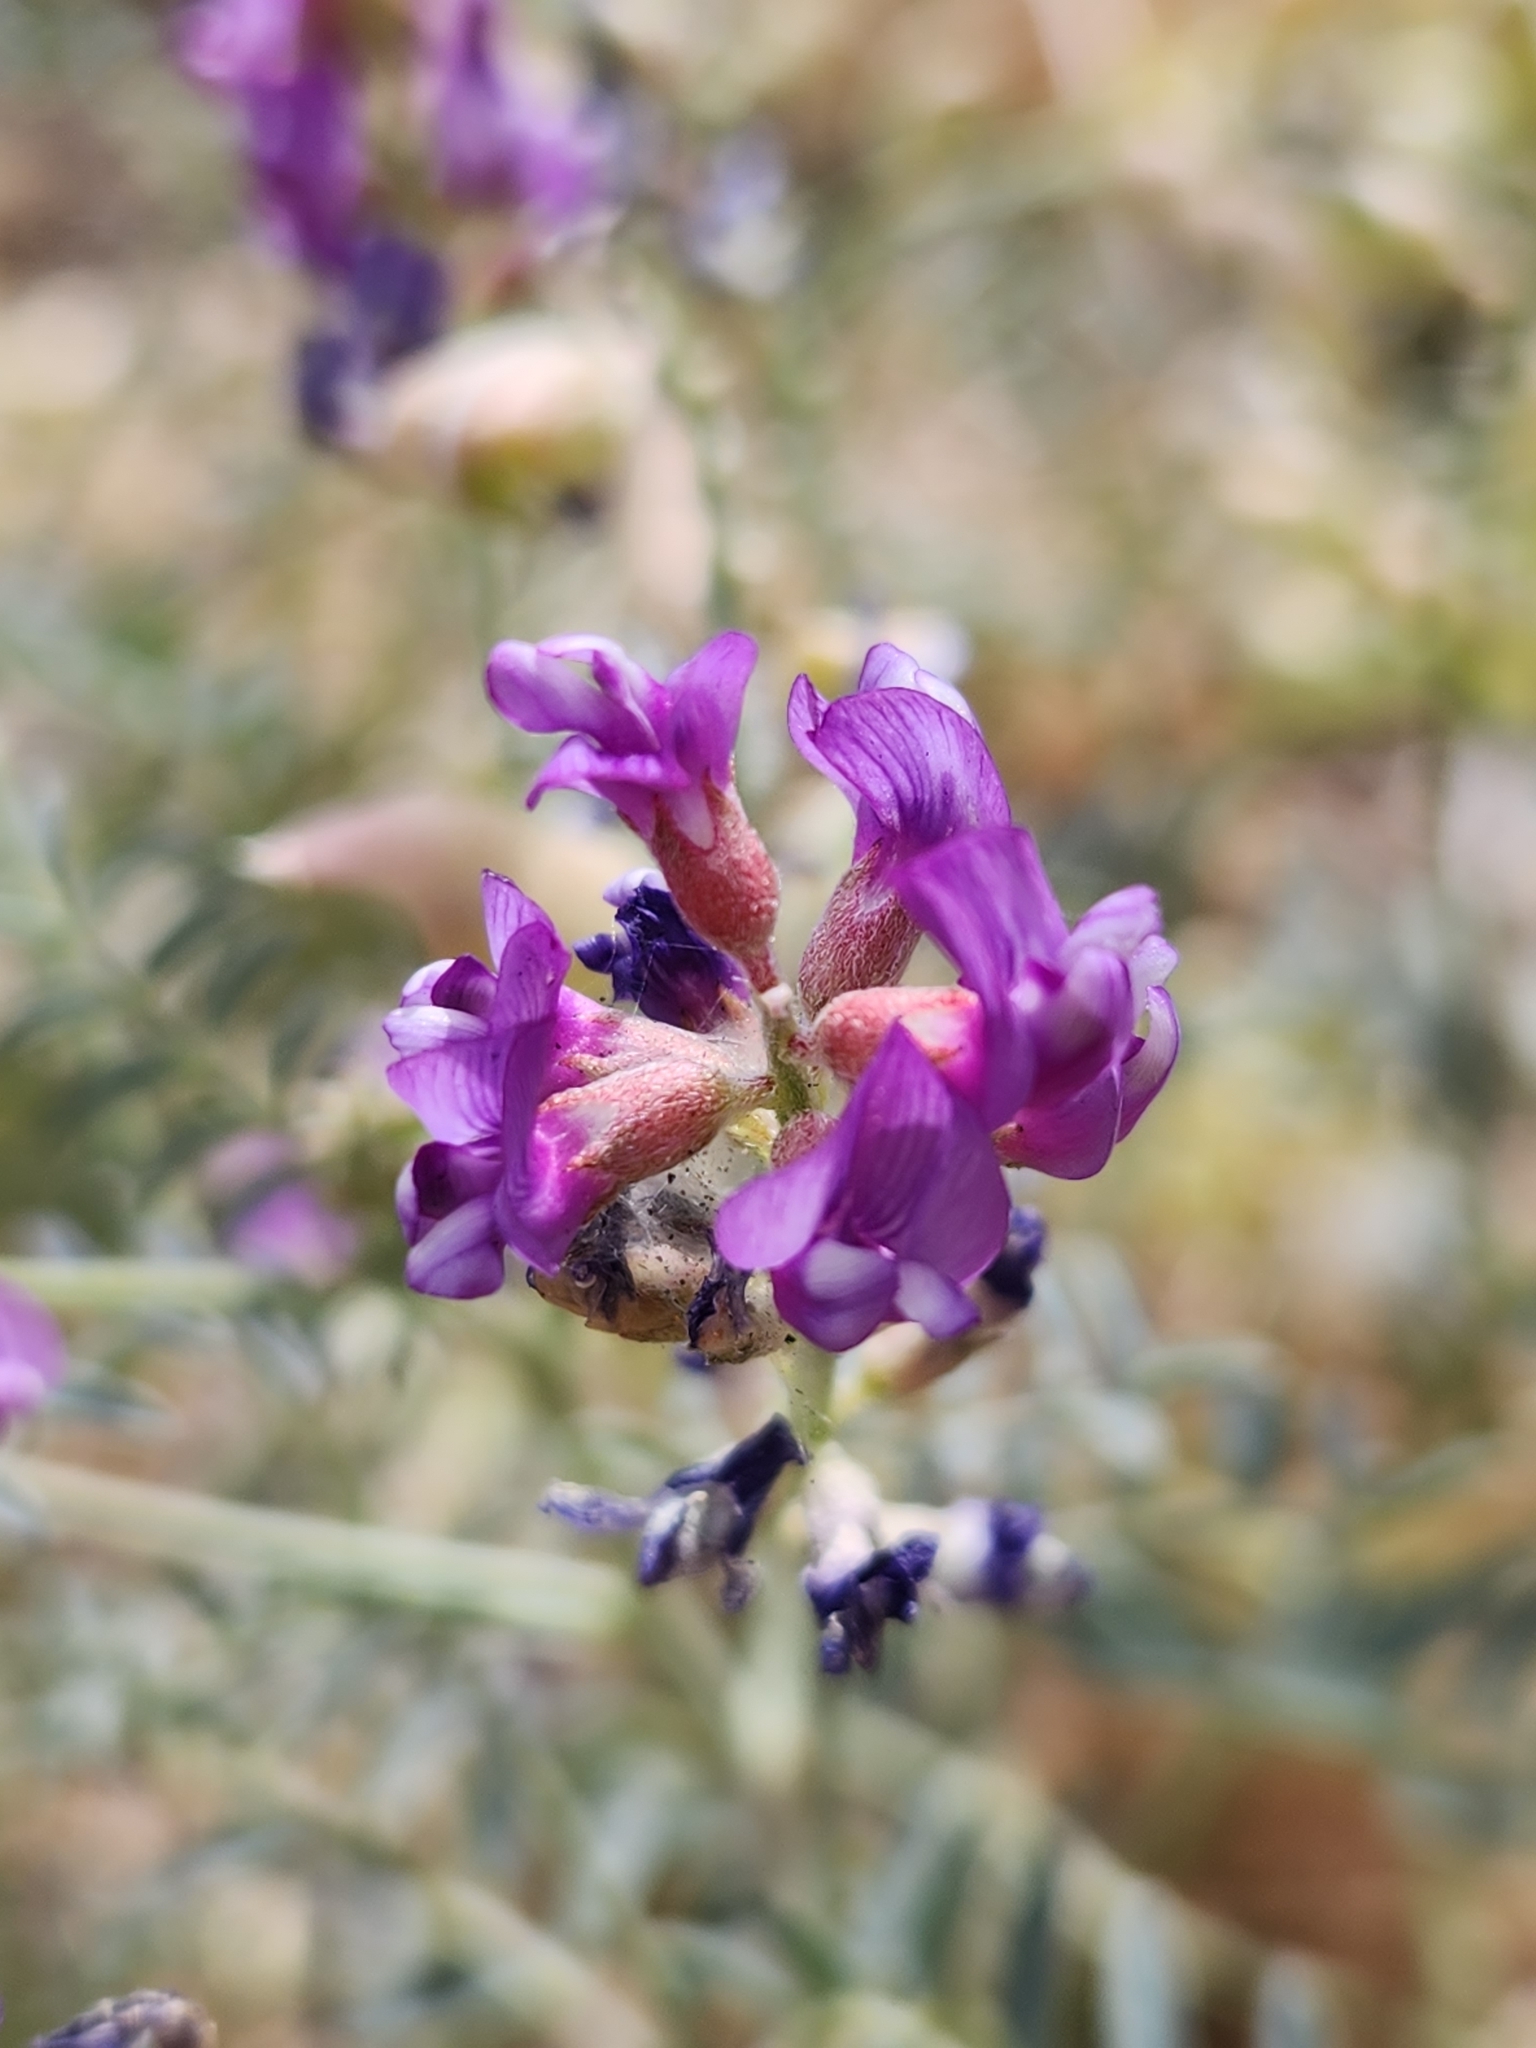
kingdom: Plantae
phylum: Tracheophyta
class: Magnoliopsida
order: Fabales
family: Fabaceae
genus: Astragalus
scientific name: Astragalus palmeri
